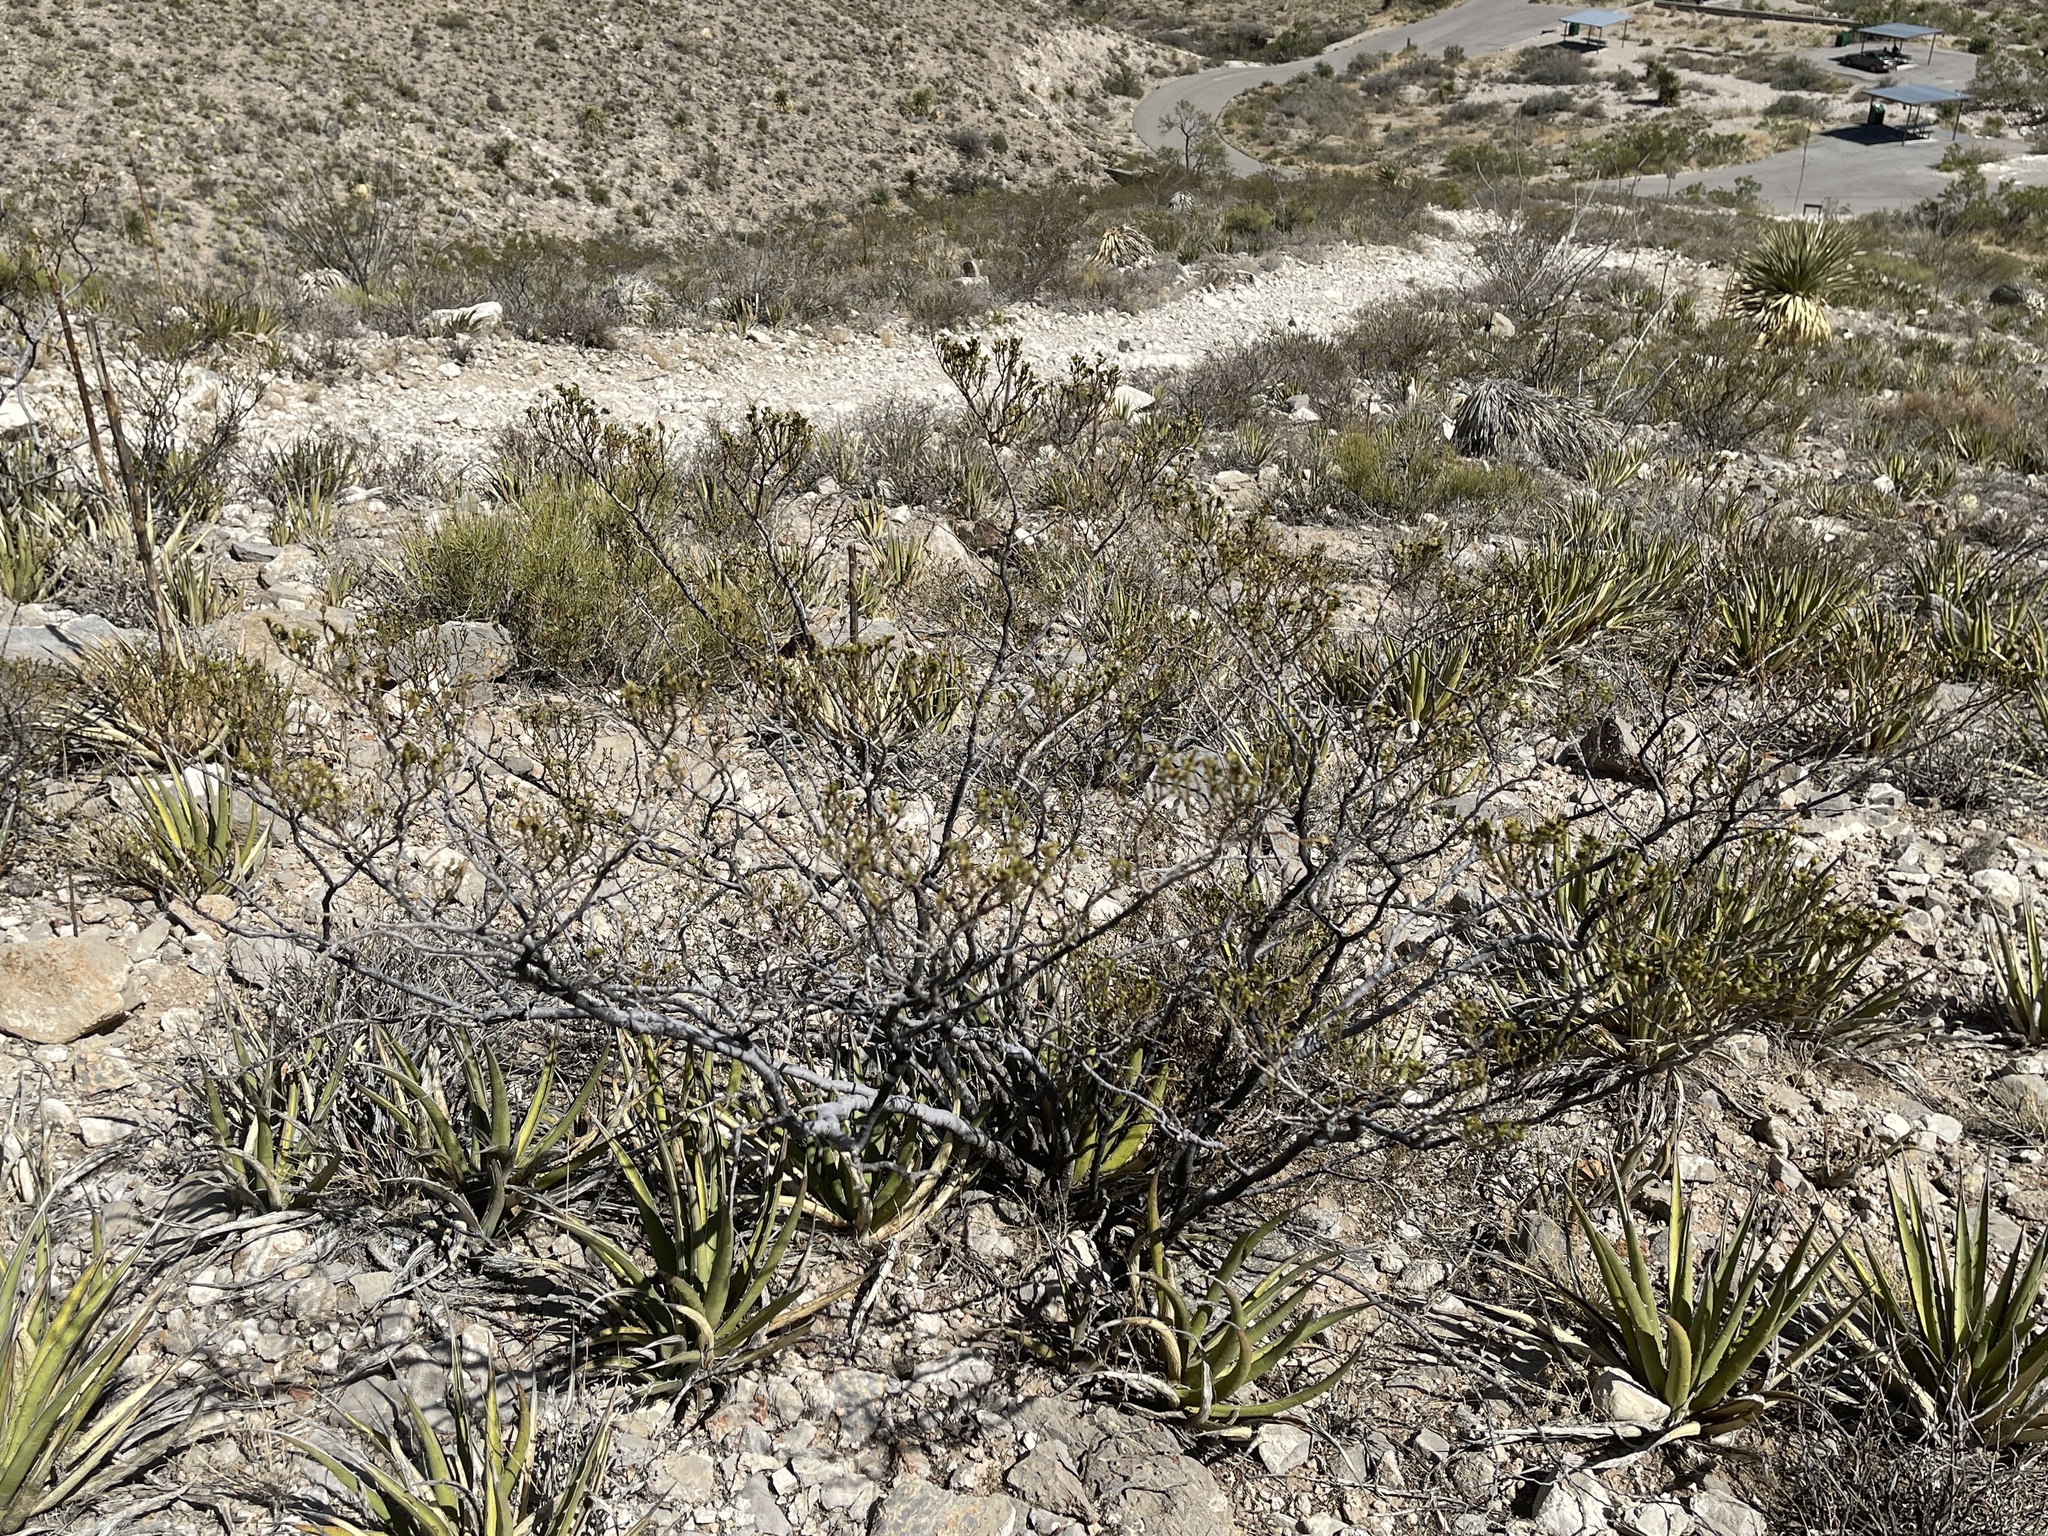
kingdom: Plantae
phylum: Tracheophyta
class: Magnoliopsida
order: Zygophyllales
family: Zygophyllaceae
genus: Larrea
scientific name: Larrea tridentata
